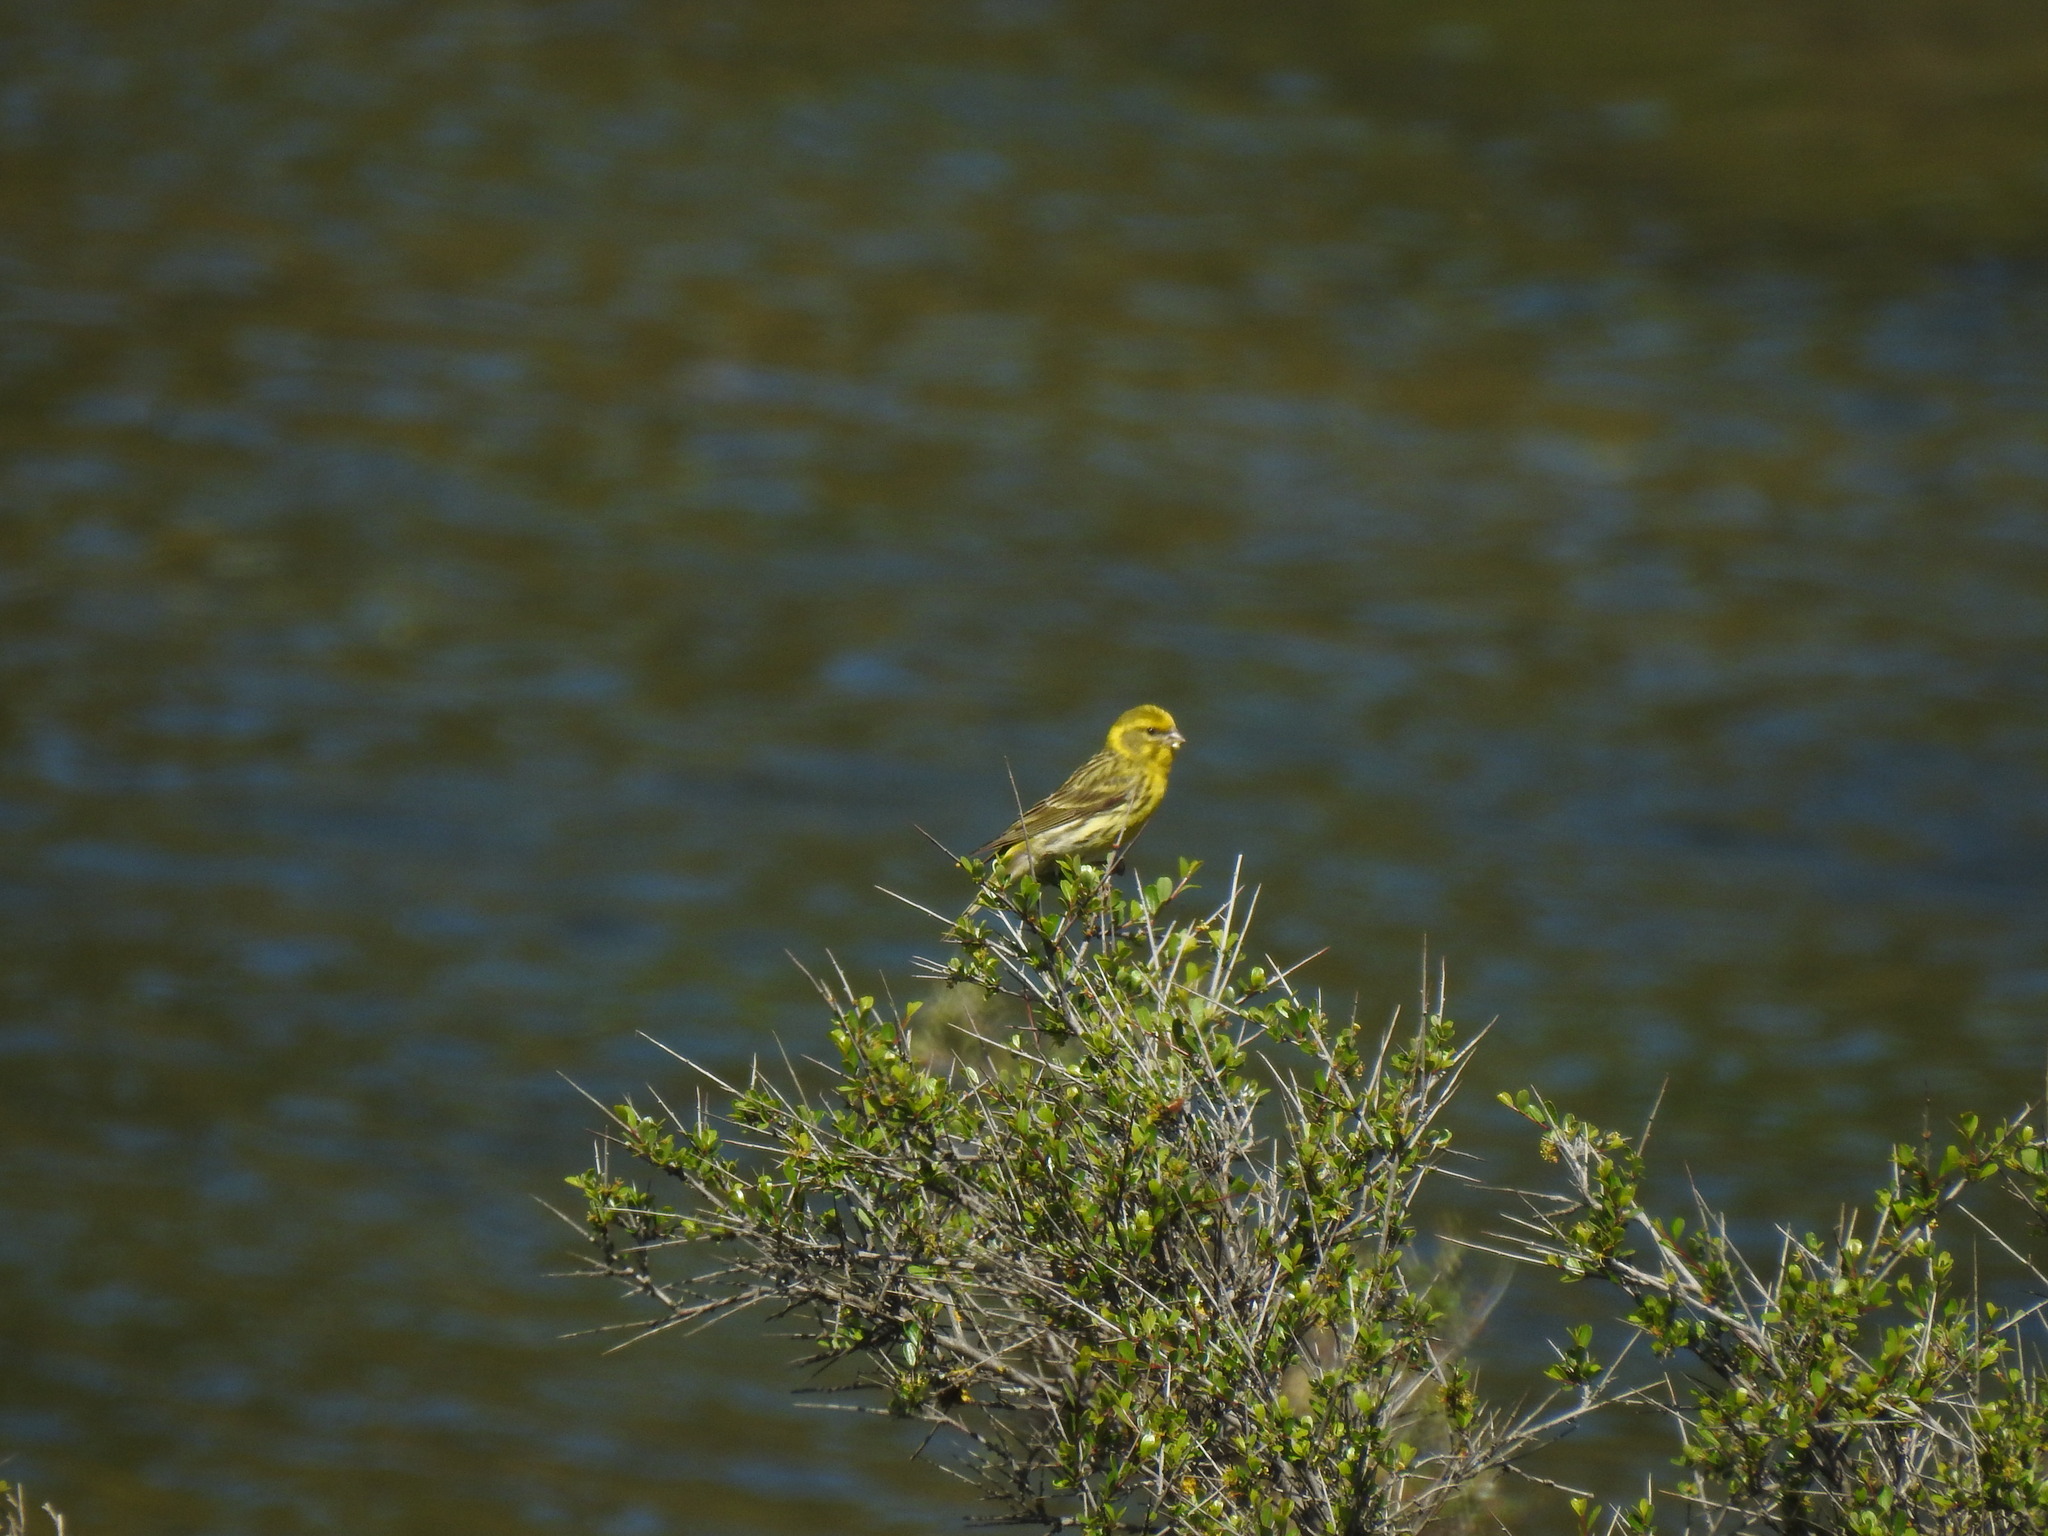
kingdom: Animalia
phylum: Chordata
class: Aves
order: Passeriformes
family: Fringillidae
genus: Serinus
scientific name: Serinus serinus
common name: European serin
